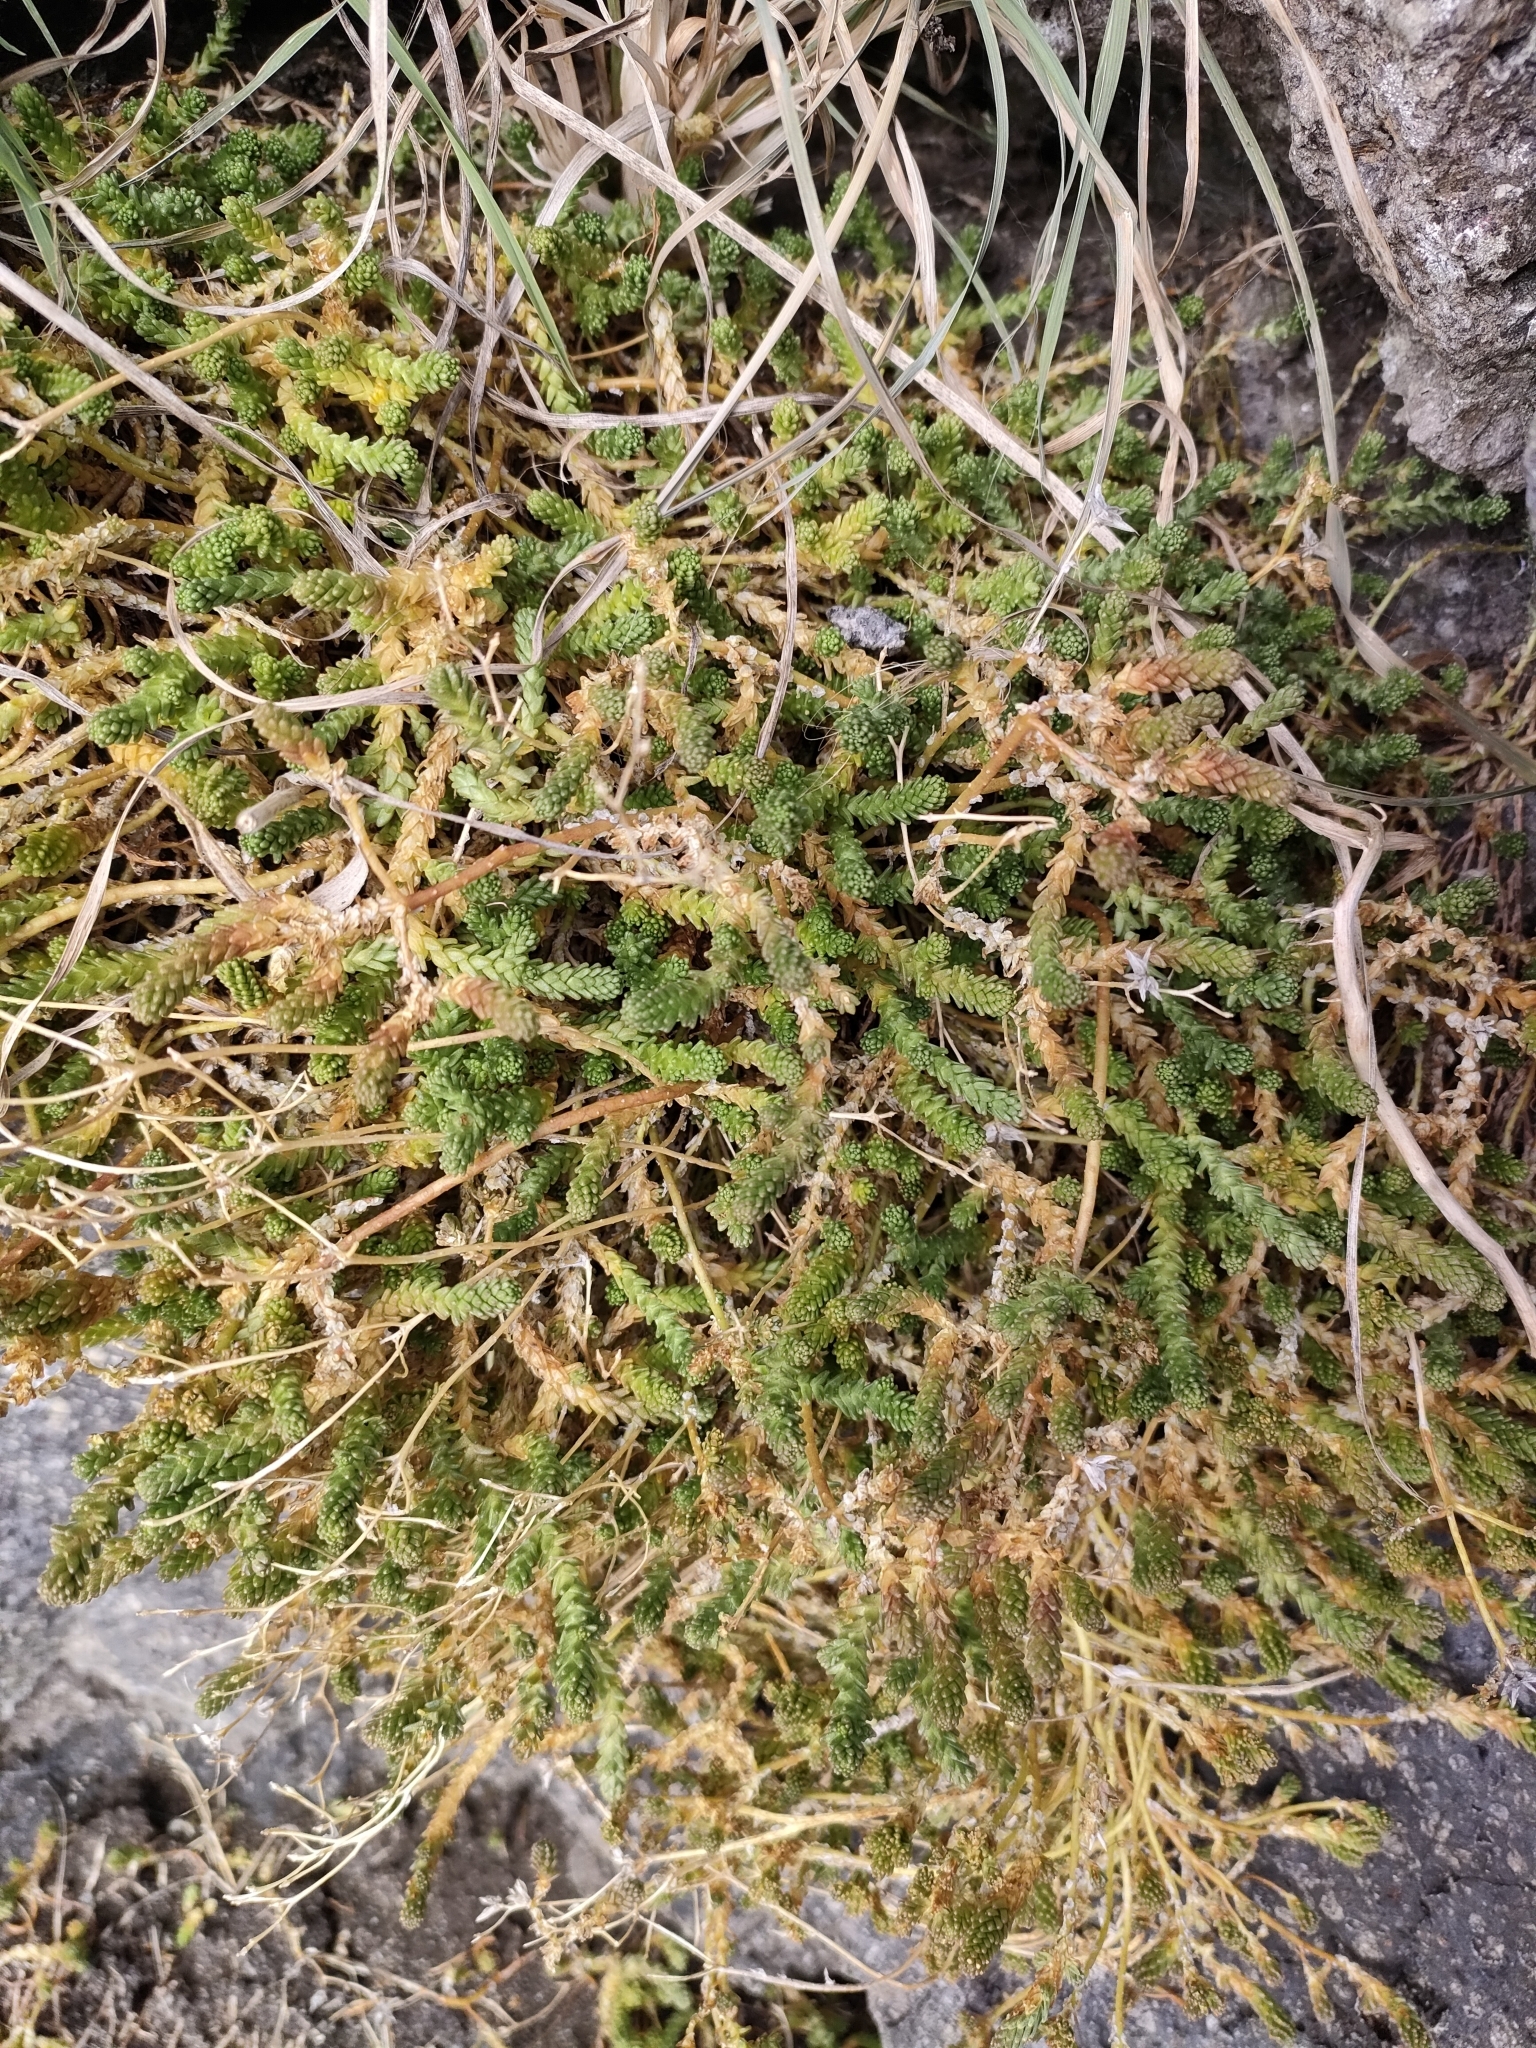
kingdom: Plantae
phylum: Tracheophyta
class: Magnoliopsida
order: Saxifragales
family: Crassulaceae
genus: Sedum
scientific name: Sedum acre
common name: Biting stonecrop
